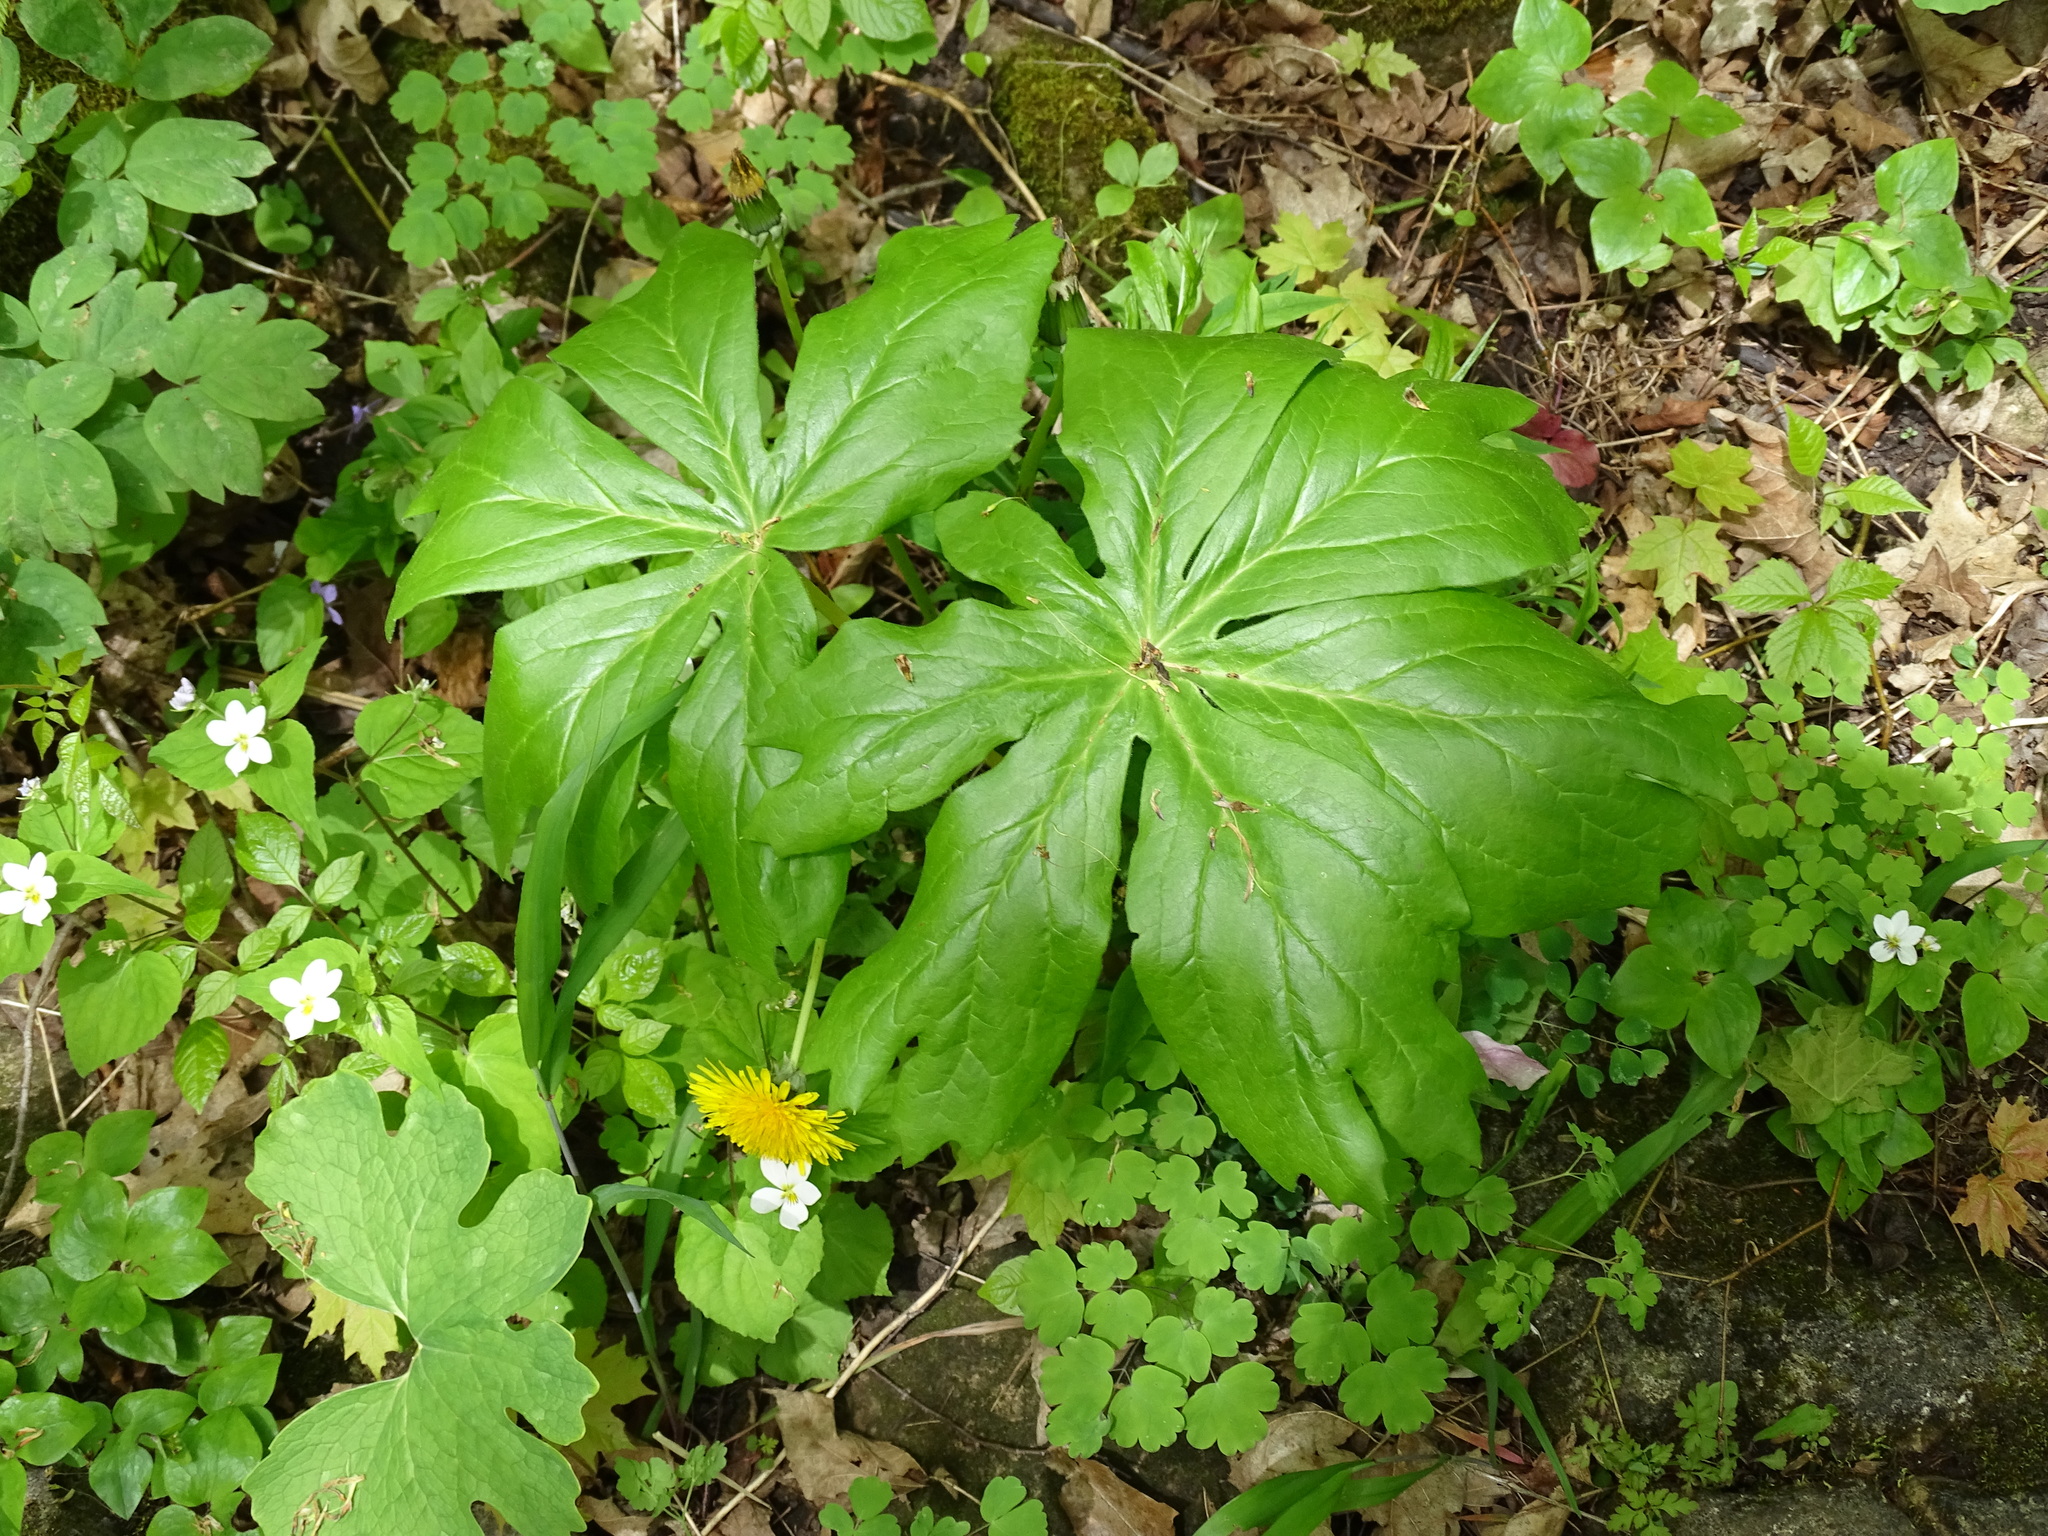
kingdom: Plantae
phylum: Tracheophyta
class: Magnoliopsida
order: Ranunculales
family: Berberidaceae
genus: Podophyllum
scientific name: Podophyllum peltatum
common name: Wild mandrake
